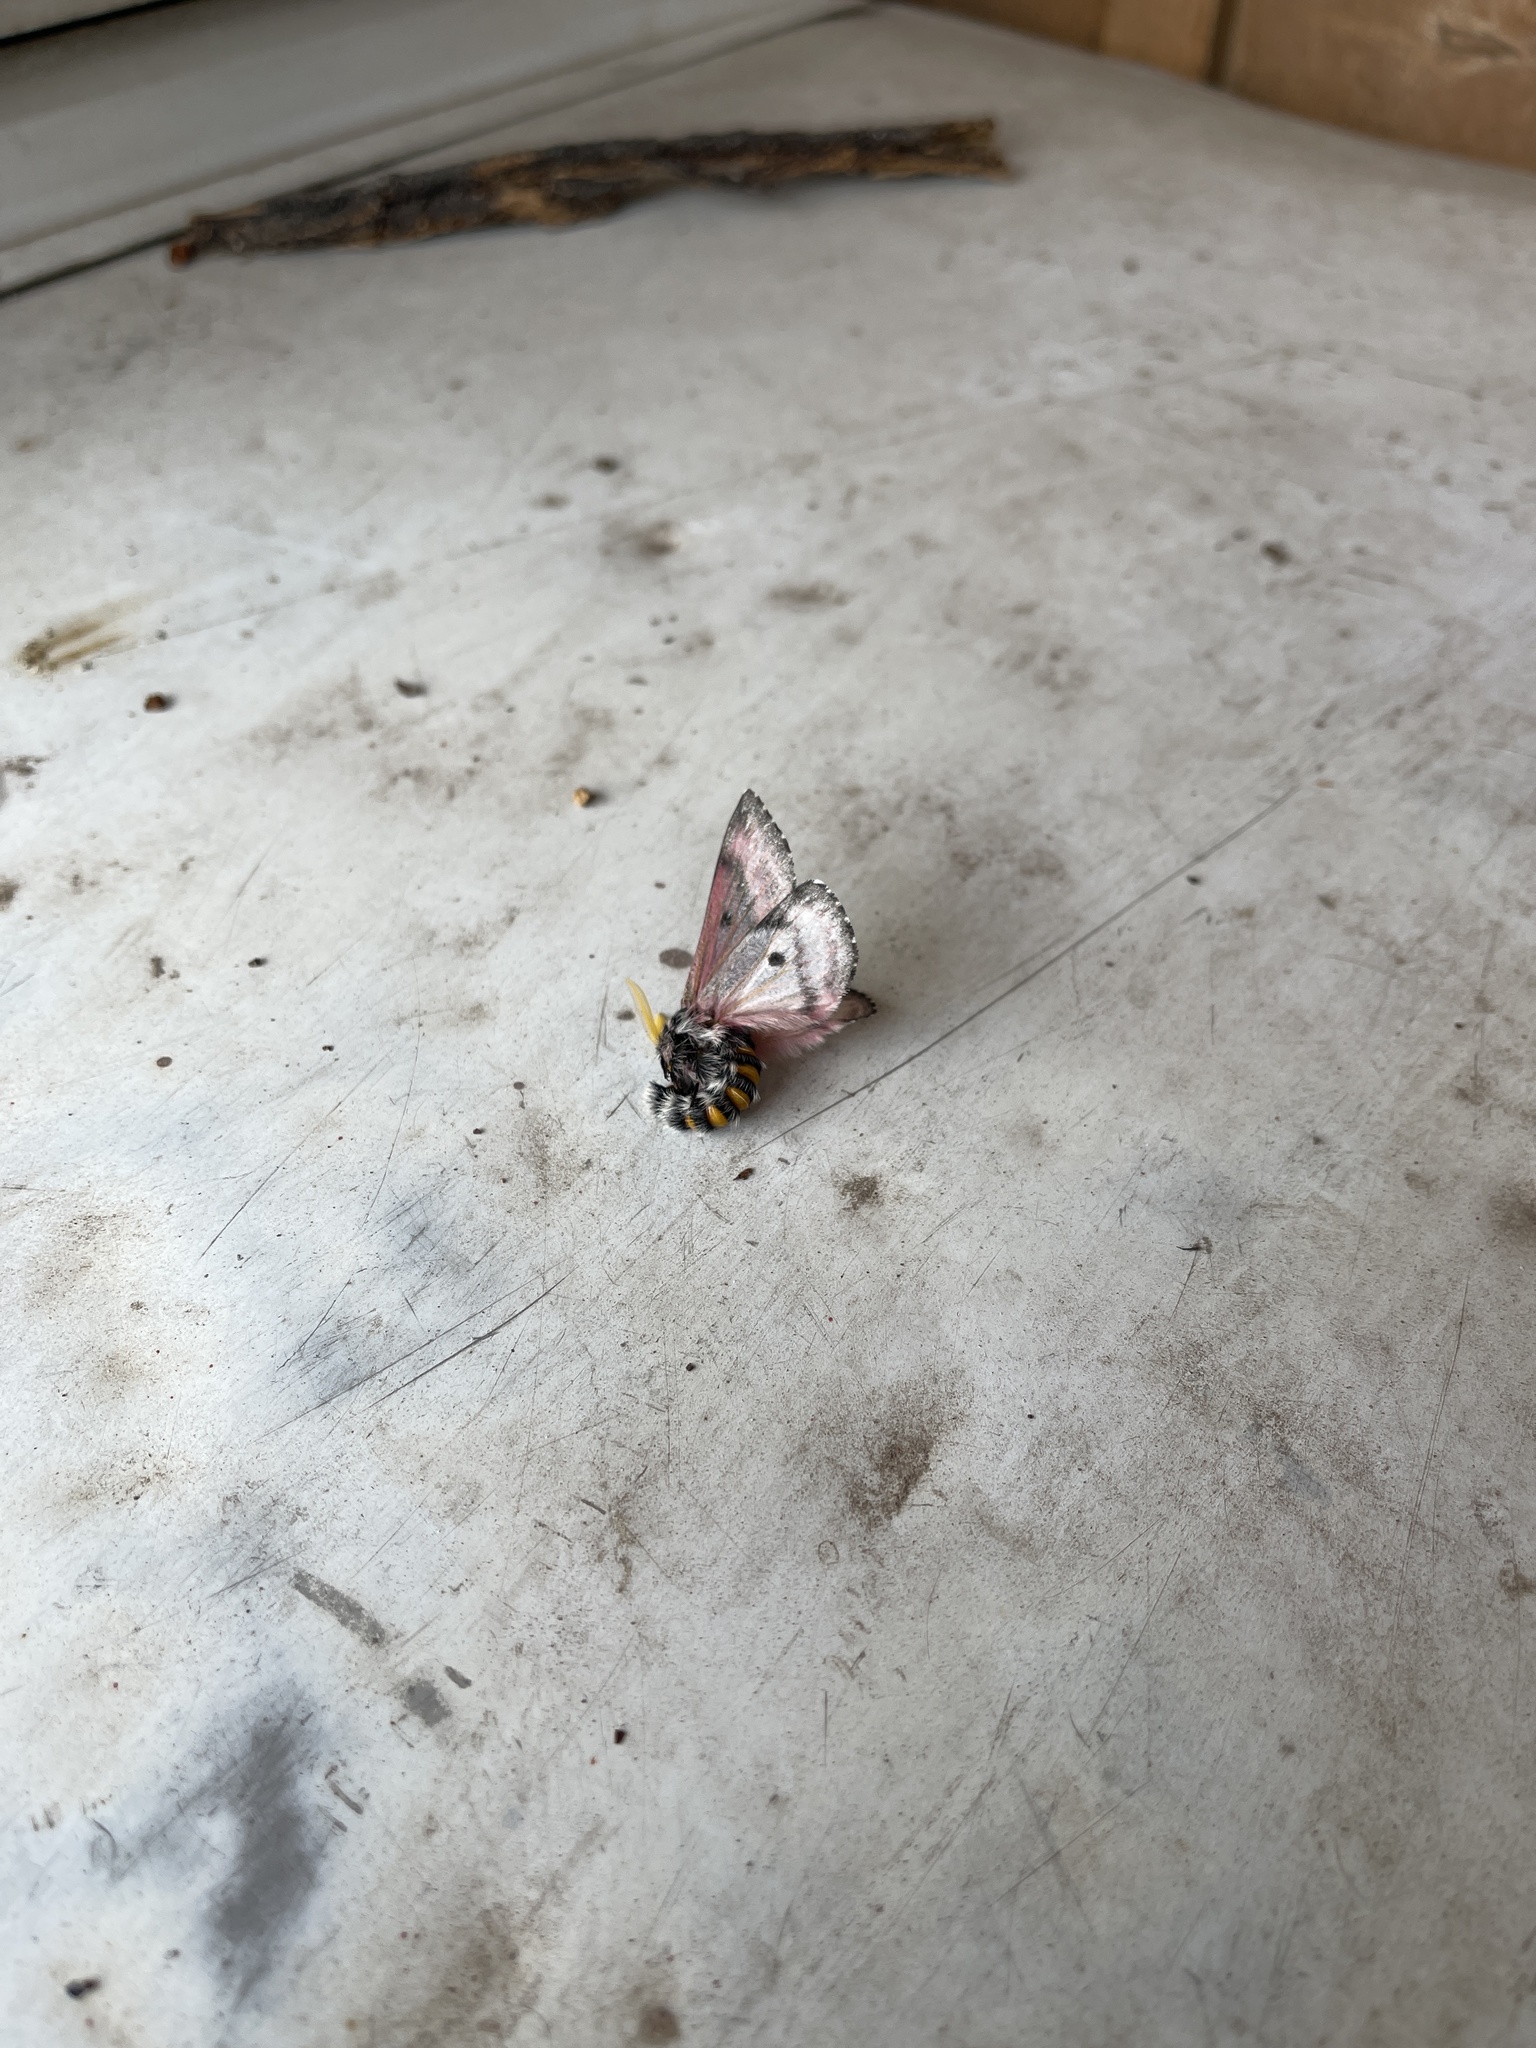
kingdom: Animalia
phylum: Arthropoda
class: Insecta
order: Lepidoptera
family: Saturniidae
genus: Coloradia
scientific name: Coloradia pandora
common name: Pandora pinemoth
